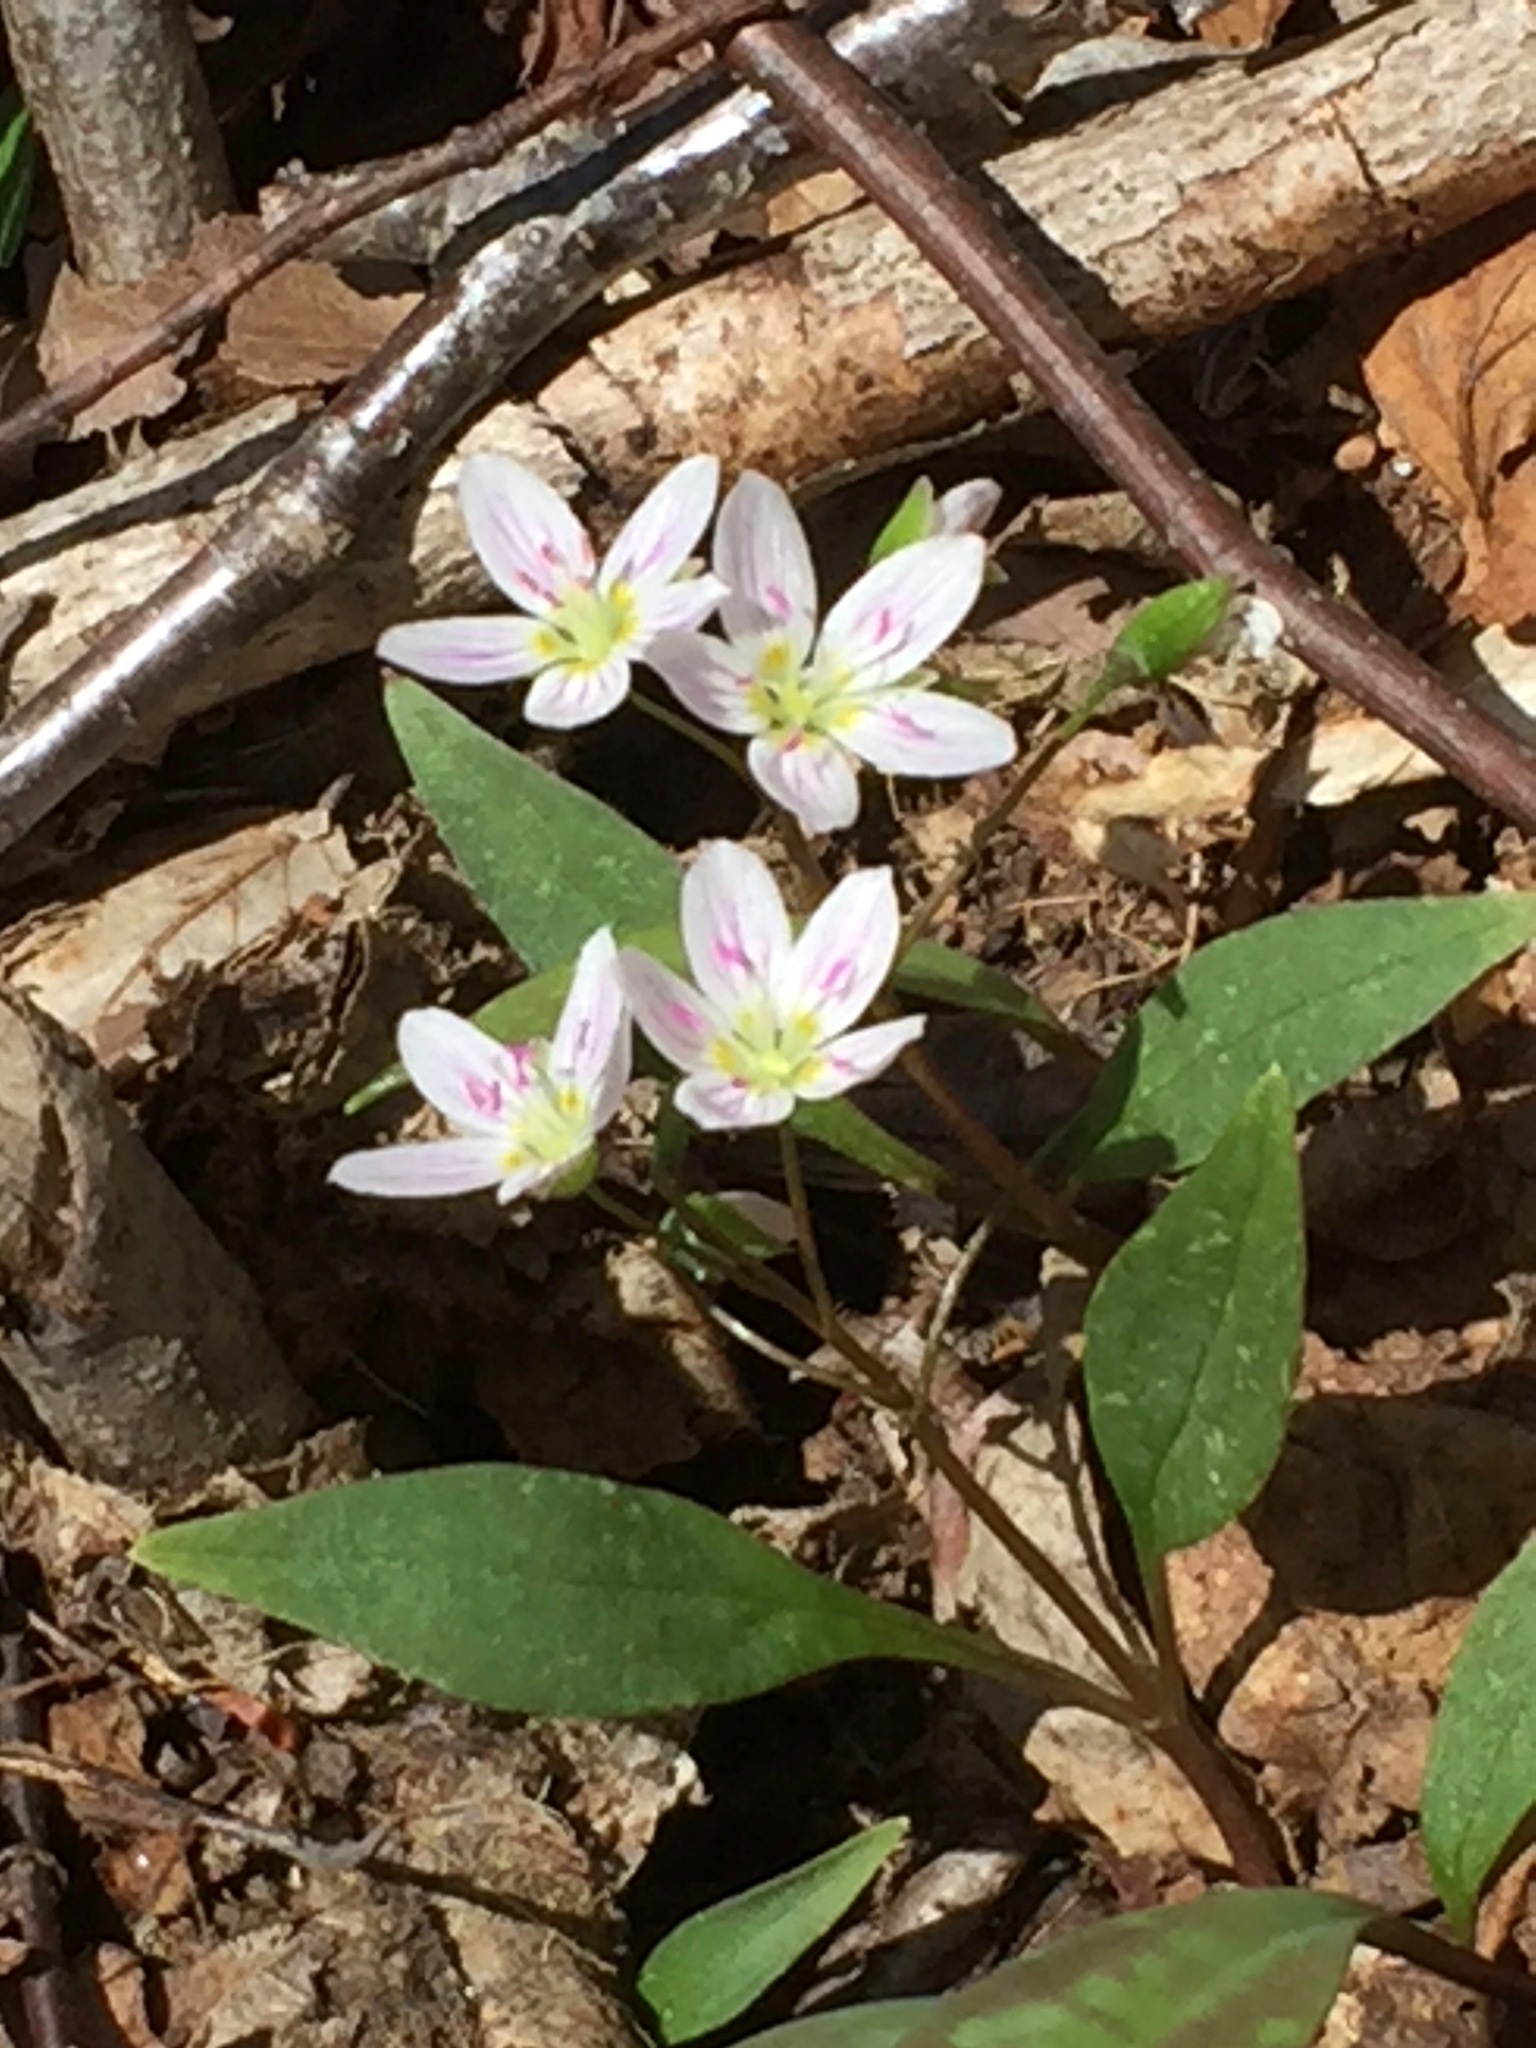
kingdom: Plantae
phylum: Tracheophyta
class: Magnoliopsida
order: Caryophyllales
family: Montiaceae
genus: Claytonia
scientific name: Claytonia caroliniana
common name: Carolina spring beauty
